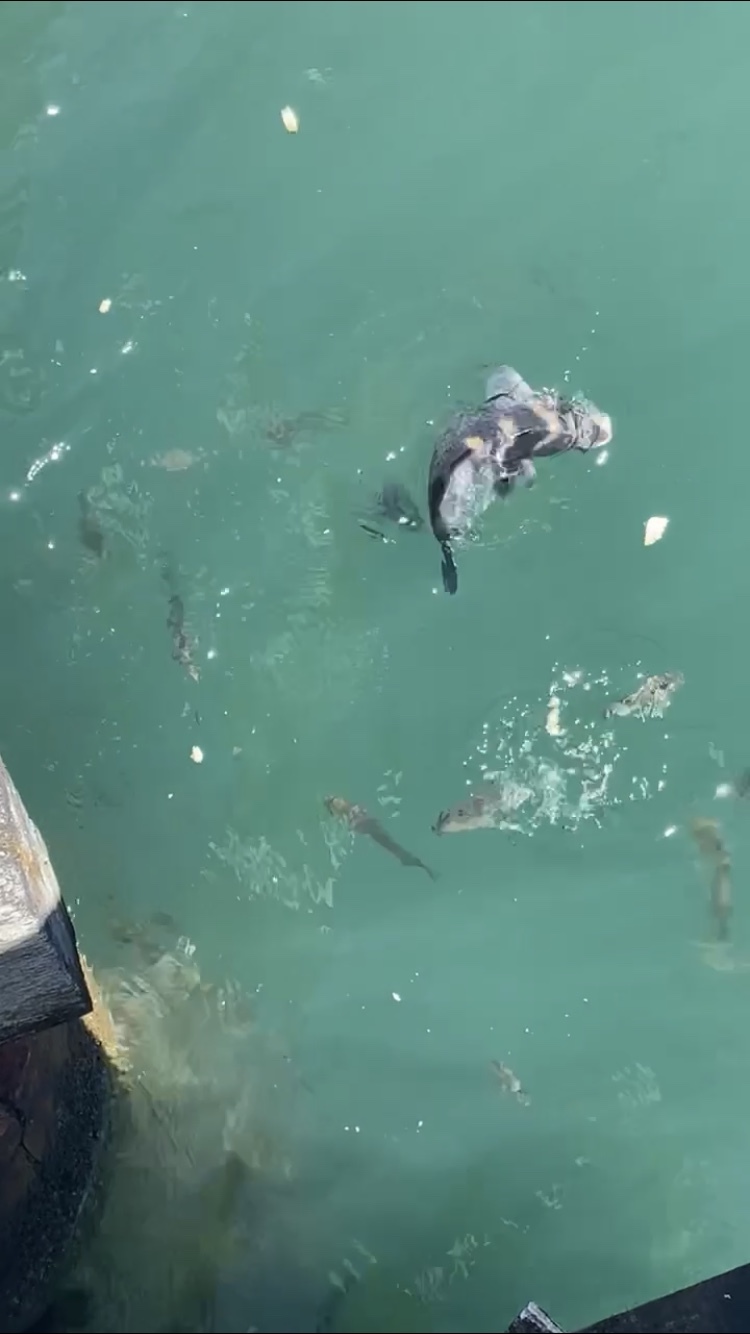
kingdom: Animalia
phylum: Chordata
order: Perciformes
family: Labridae
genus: Notolabrus
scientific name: Notolabrus fucicola
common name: Banded parrotfish
